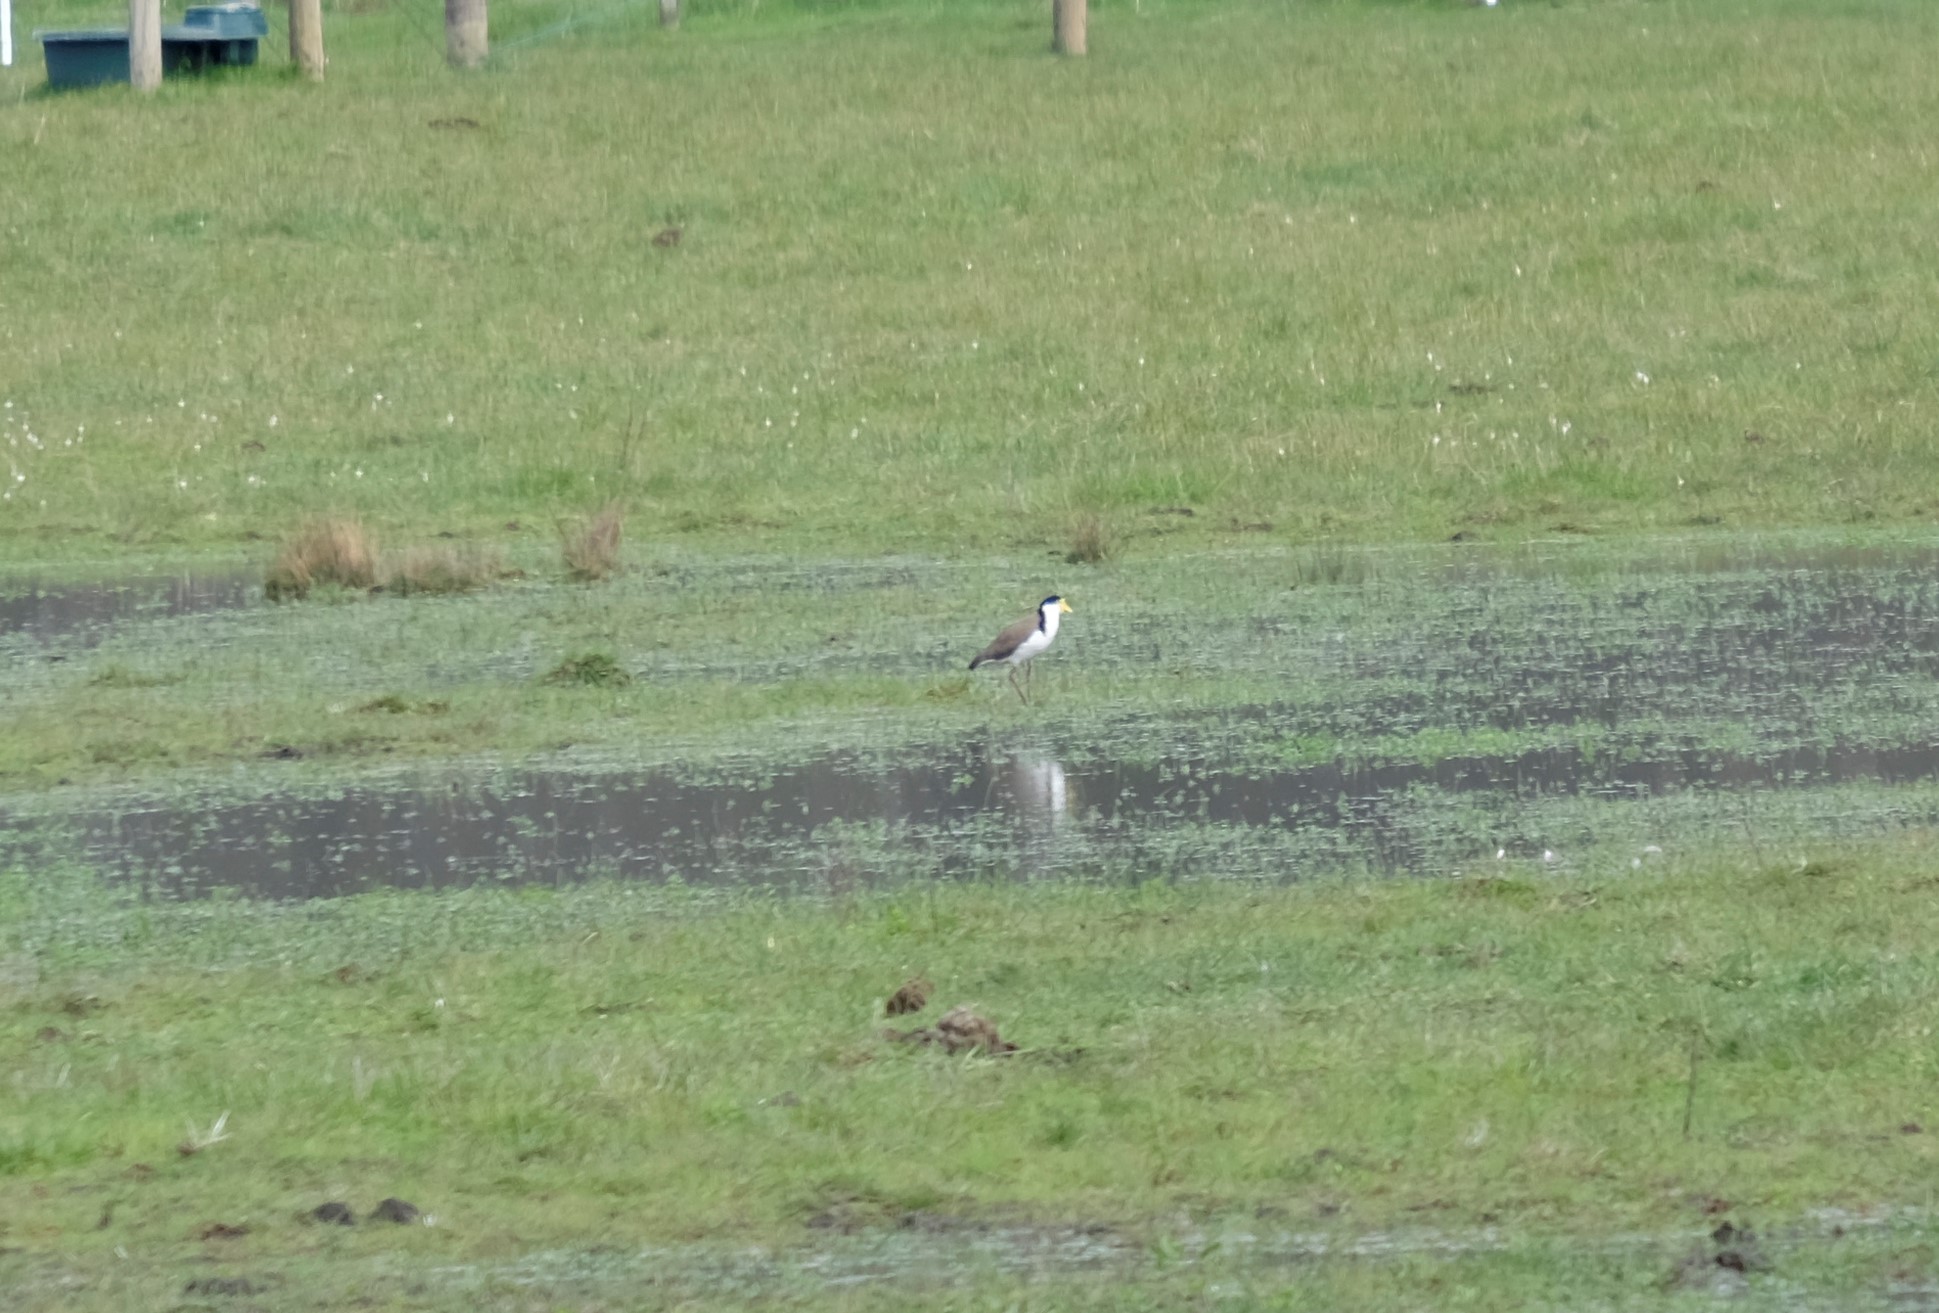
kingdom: Animalia
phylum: Chordata
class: Aves
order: Charadriiformes
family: Charadriidae
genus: Vanellus
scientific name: Vanellus miles
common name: Masked lapwing
